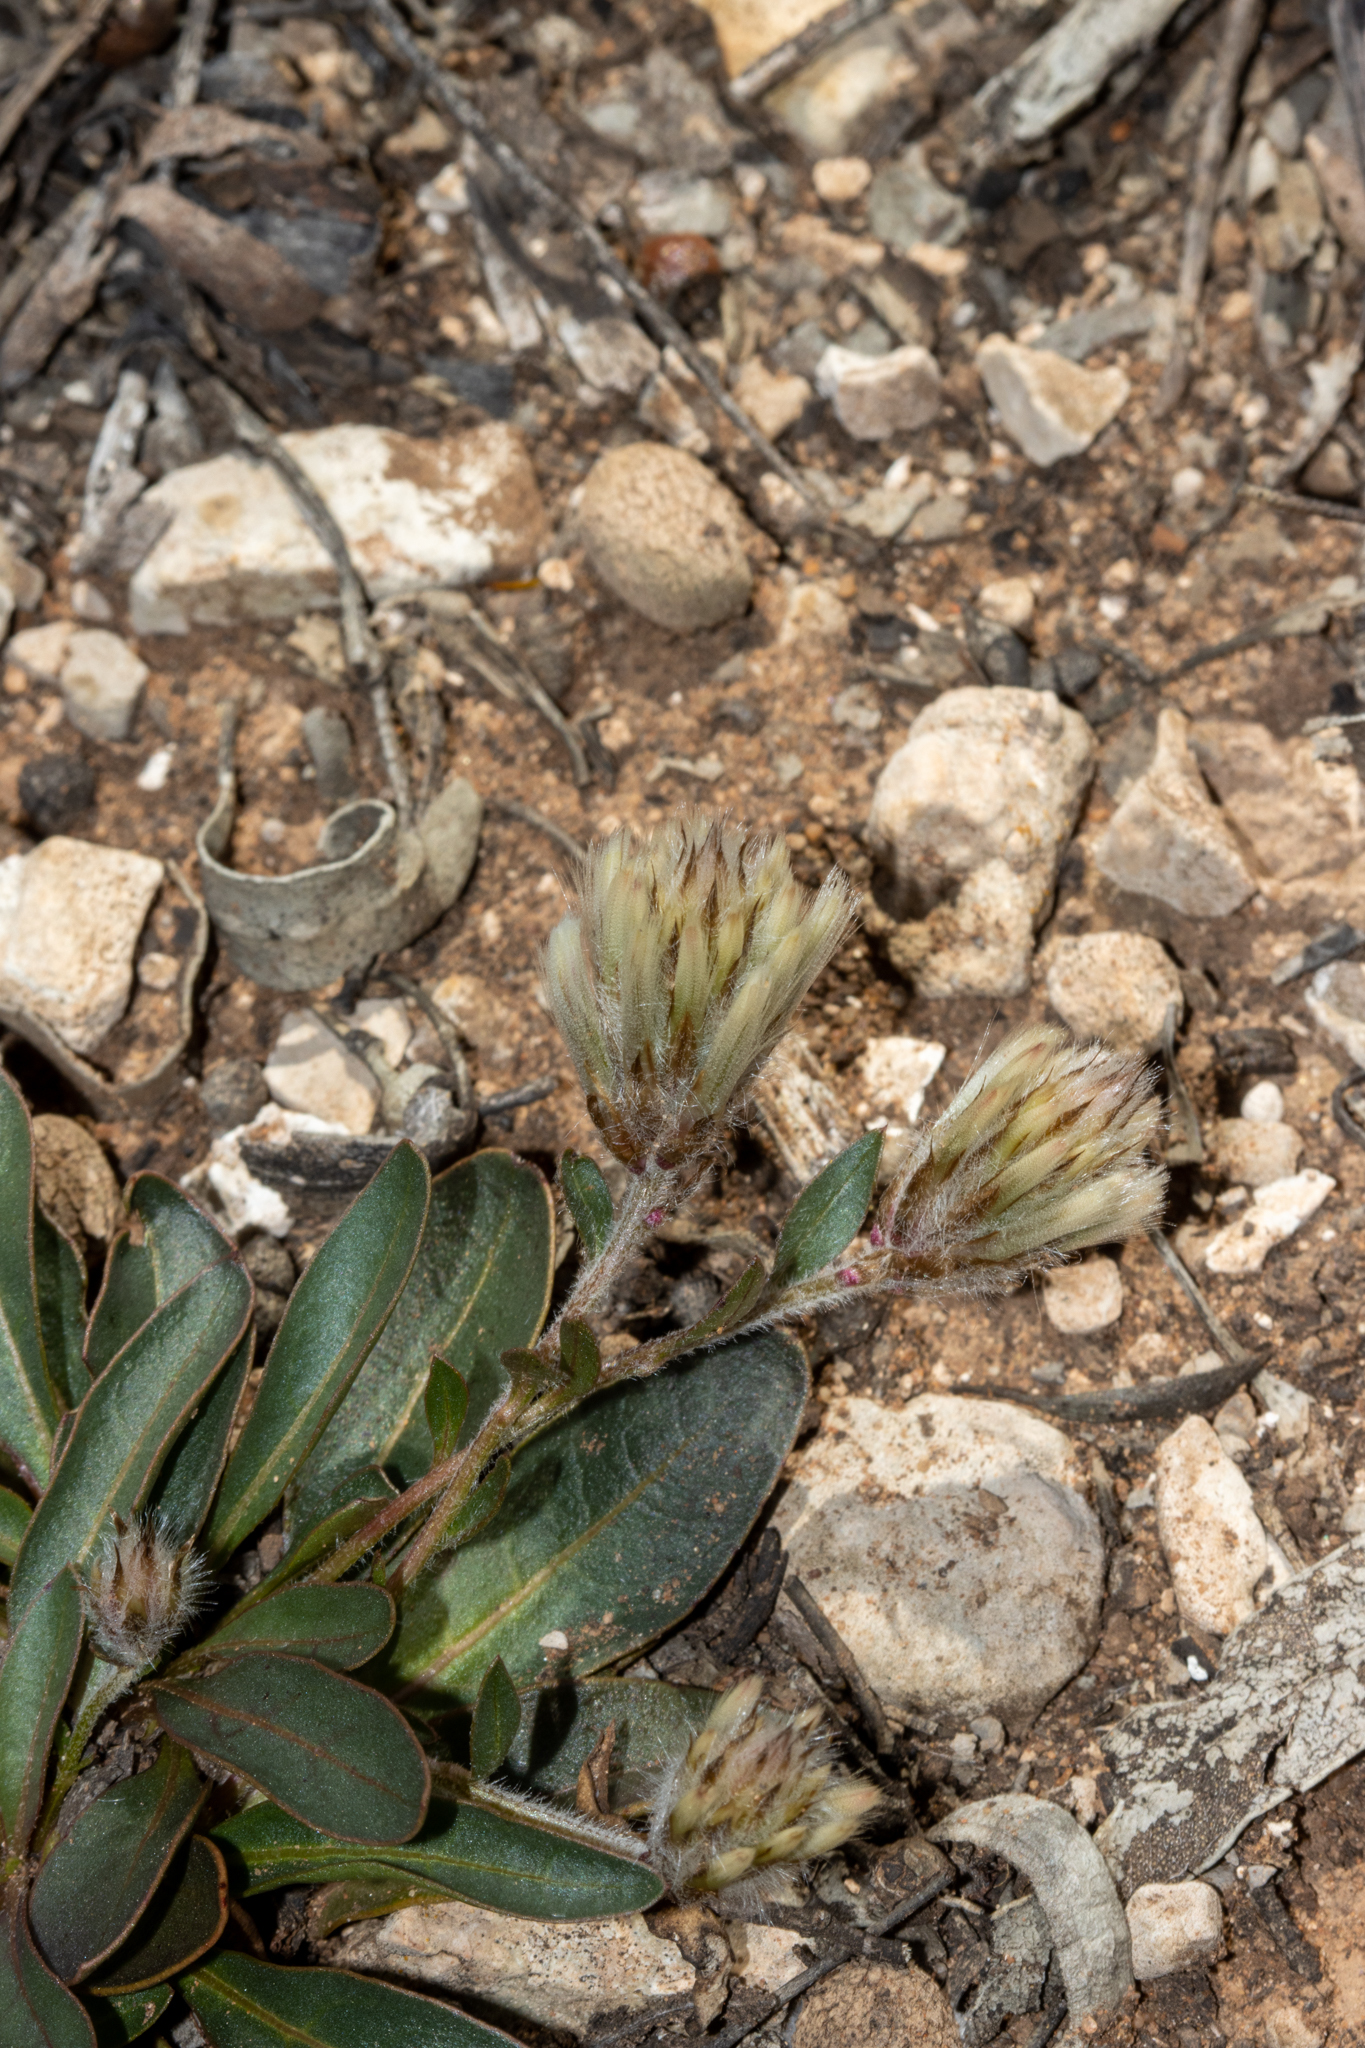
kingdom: Plantae
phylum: Tracheophyta
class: Magnoliopsida
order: Caryophyllales
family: Amaranthaceae
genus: Ptilotus
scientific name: Ptilotus seminudus
